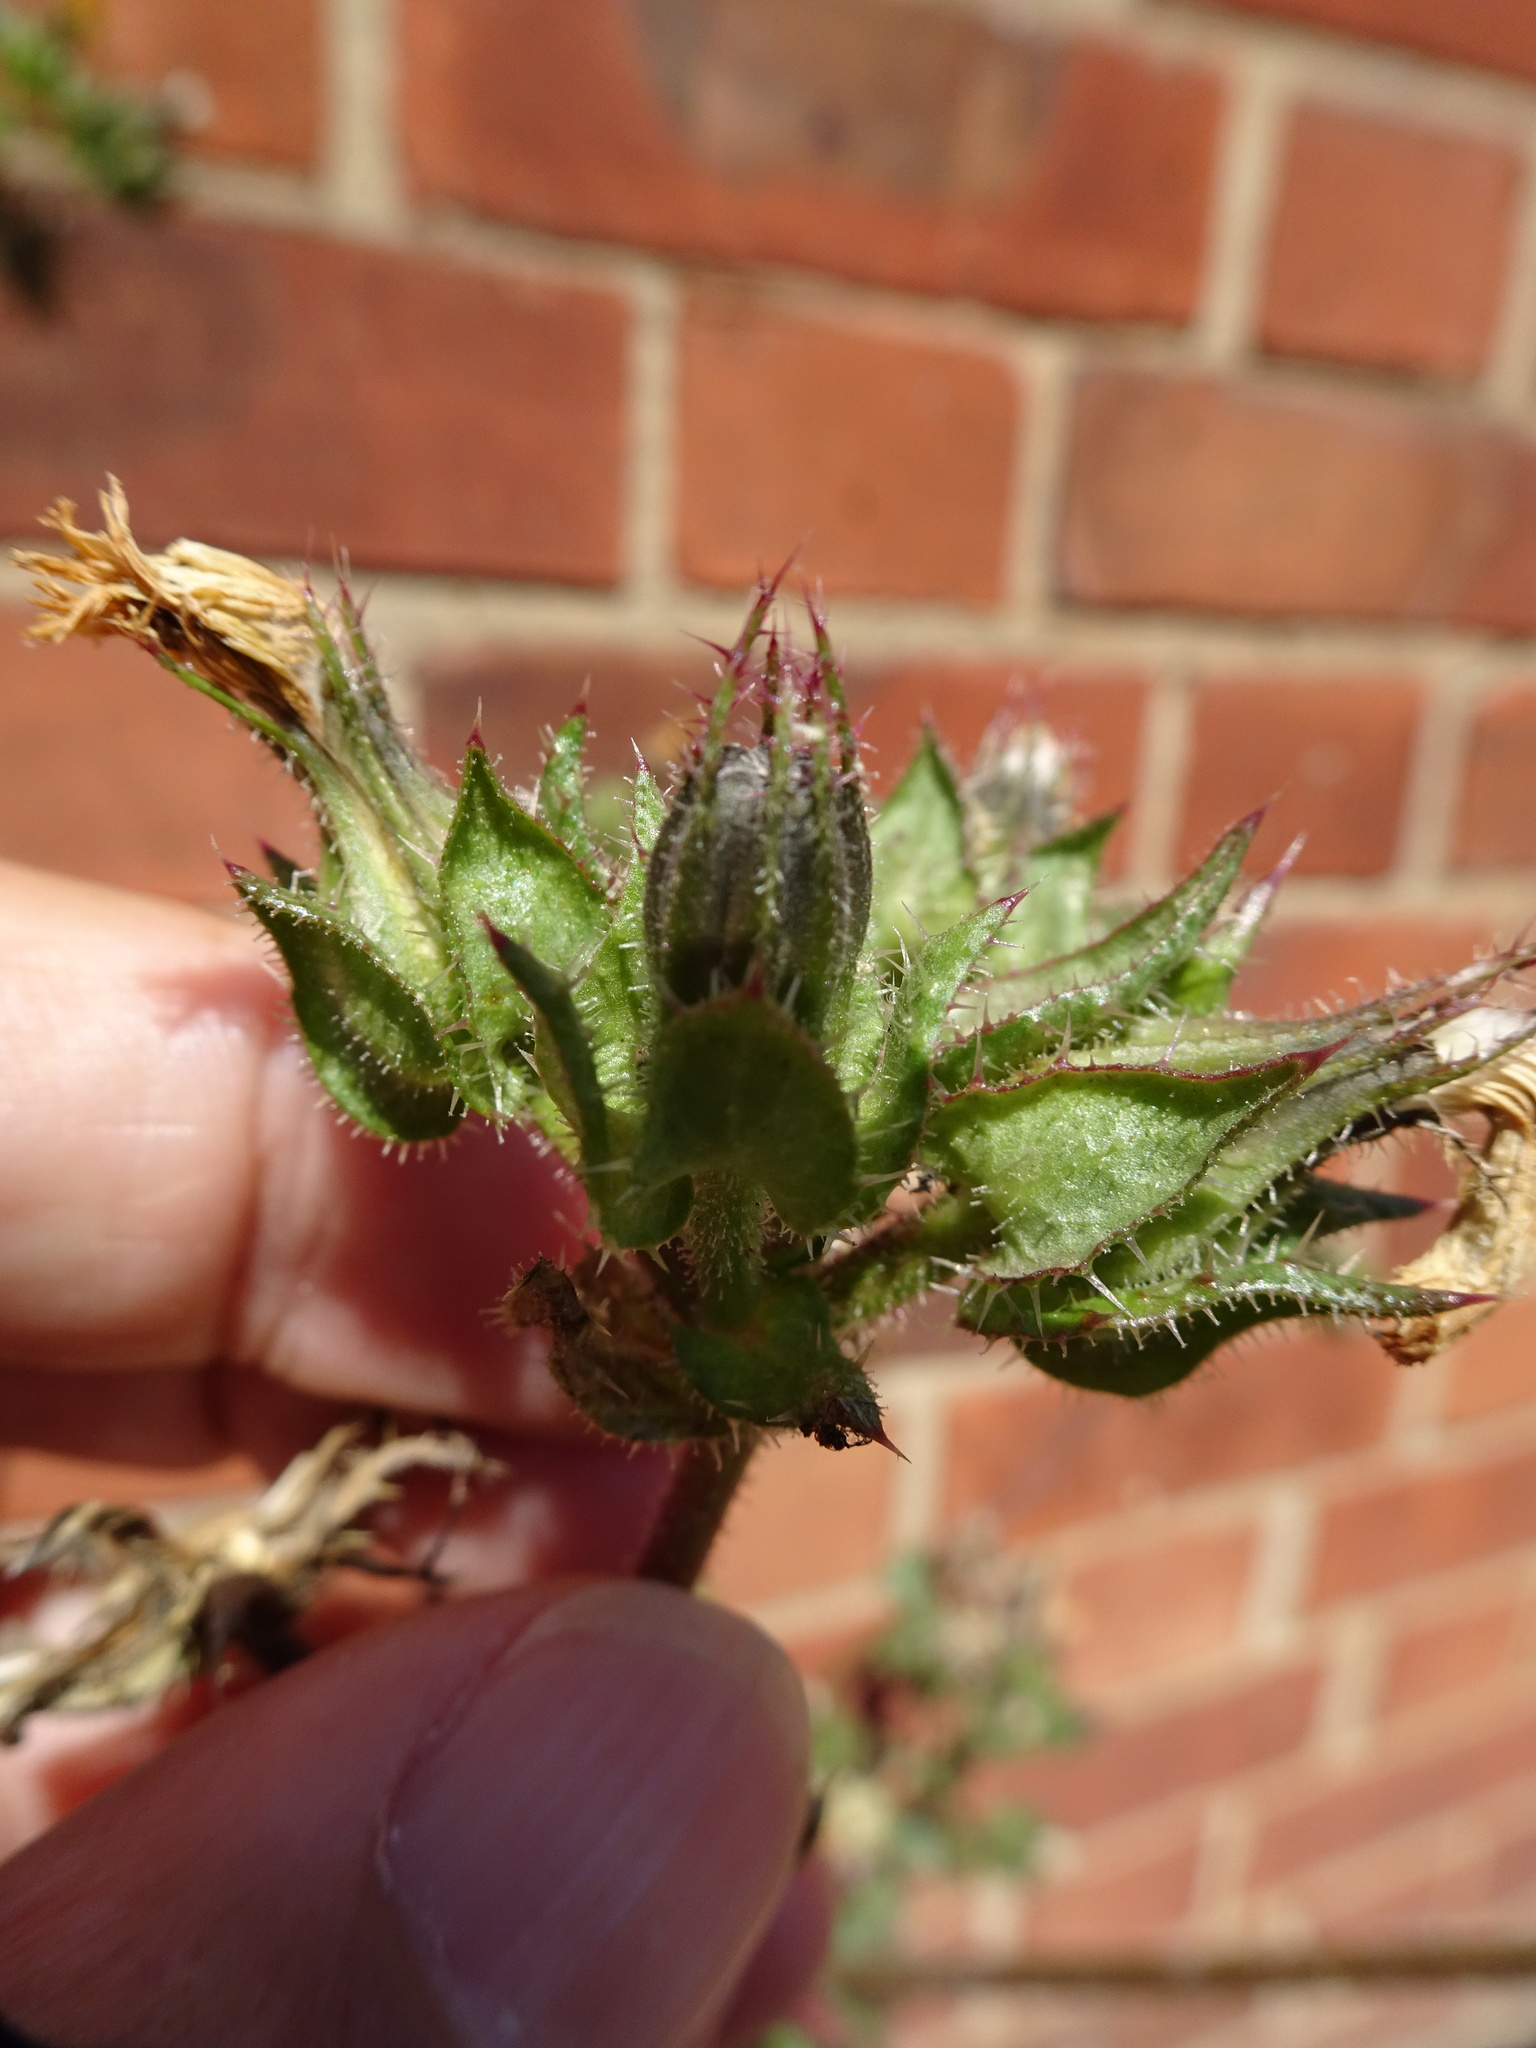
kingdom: Plantae
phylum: Tracheophyta
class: Magnoliopsida
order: Asterales
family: Asteraceae
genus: Helminthotheca
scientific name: Helminthotheca echioides
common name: Ox-tongue
